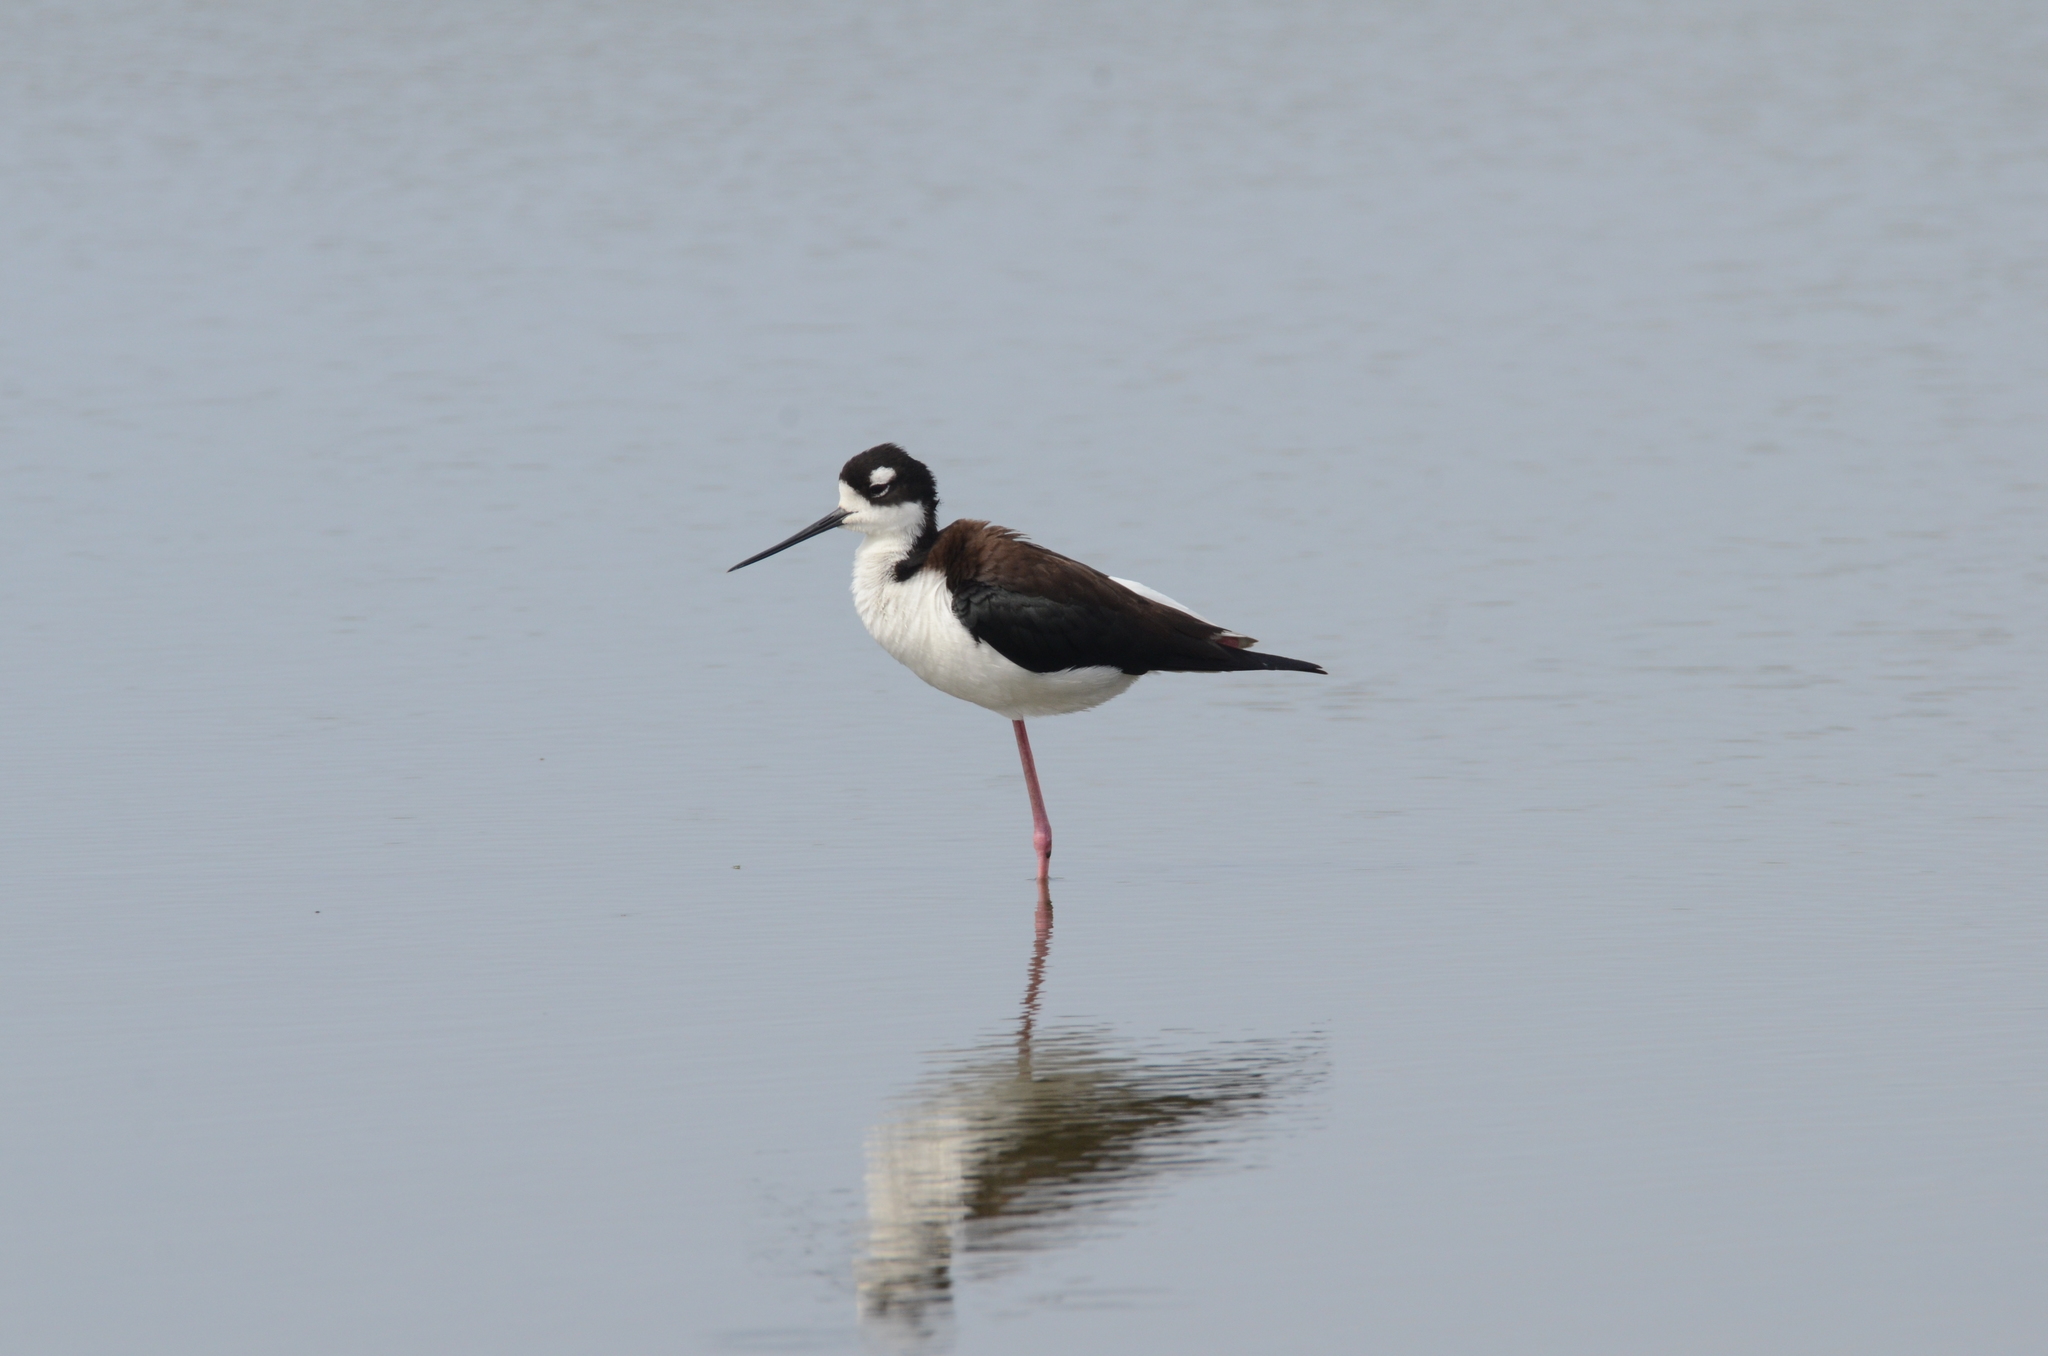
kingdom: Animalia
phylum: Chordata
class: Aves
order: Charadriiformes
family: Recurvirostridae
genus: Himantopus
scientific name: Himantopus mexicanus
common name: Black-necked stilt
